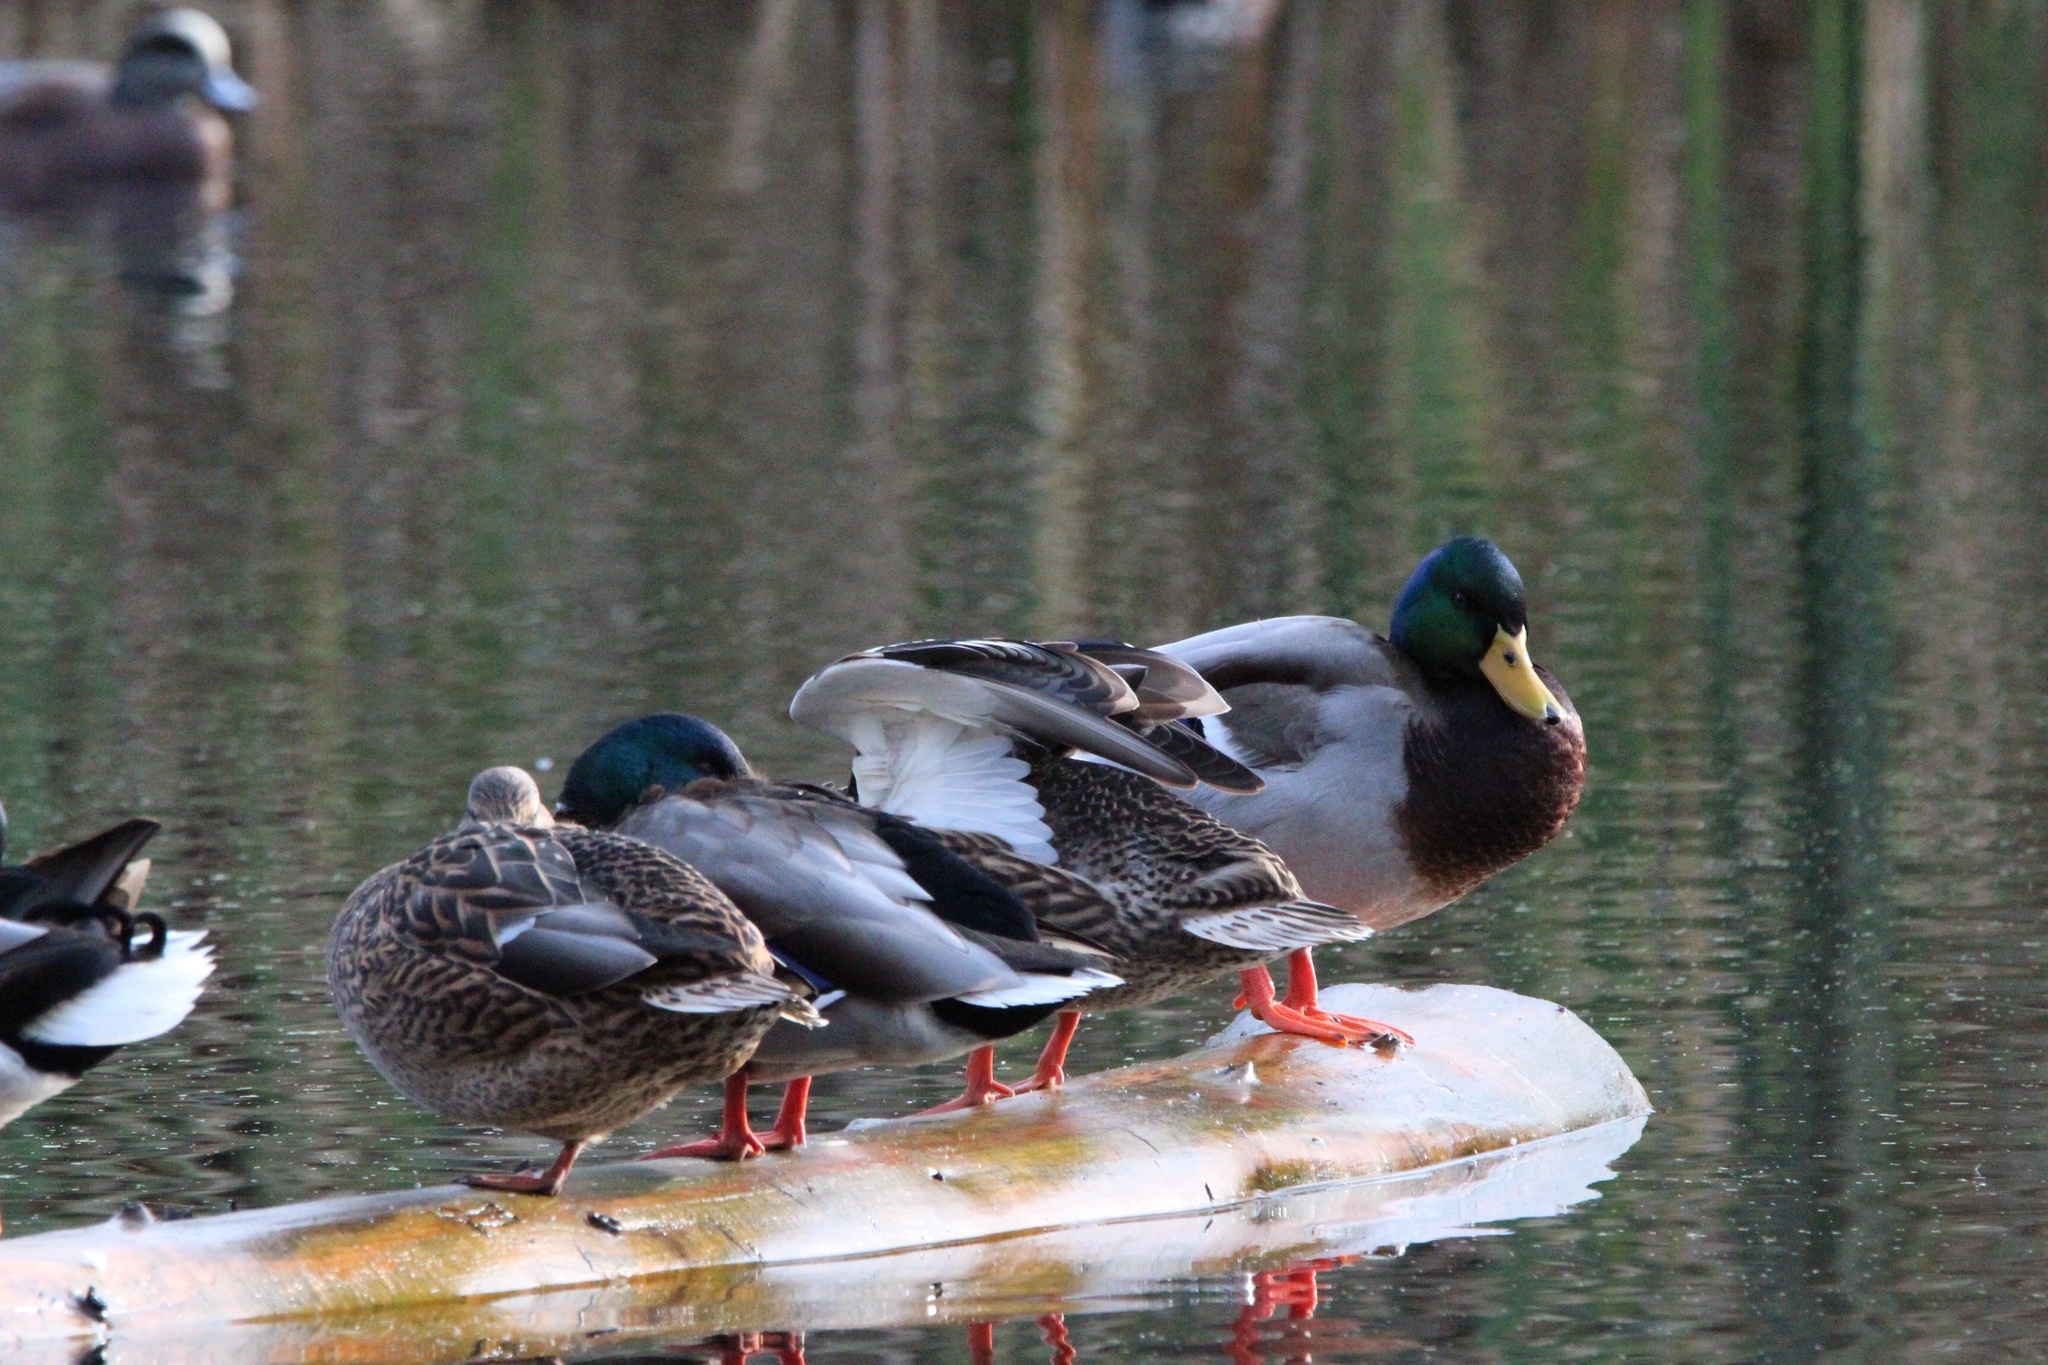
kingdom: Animalia
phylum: Chordata
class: Aves
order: Anseriformes
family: Anatidae
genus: Anas
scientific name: Anas platyrhynchos
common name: Mallard
